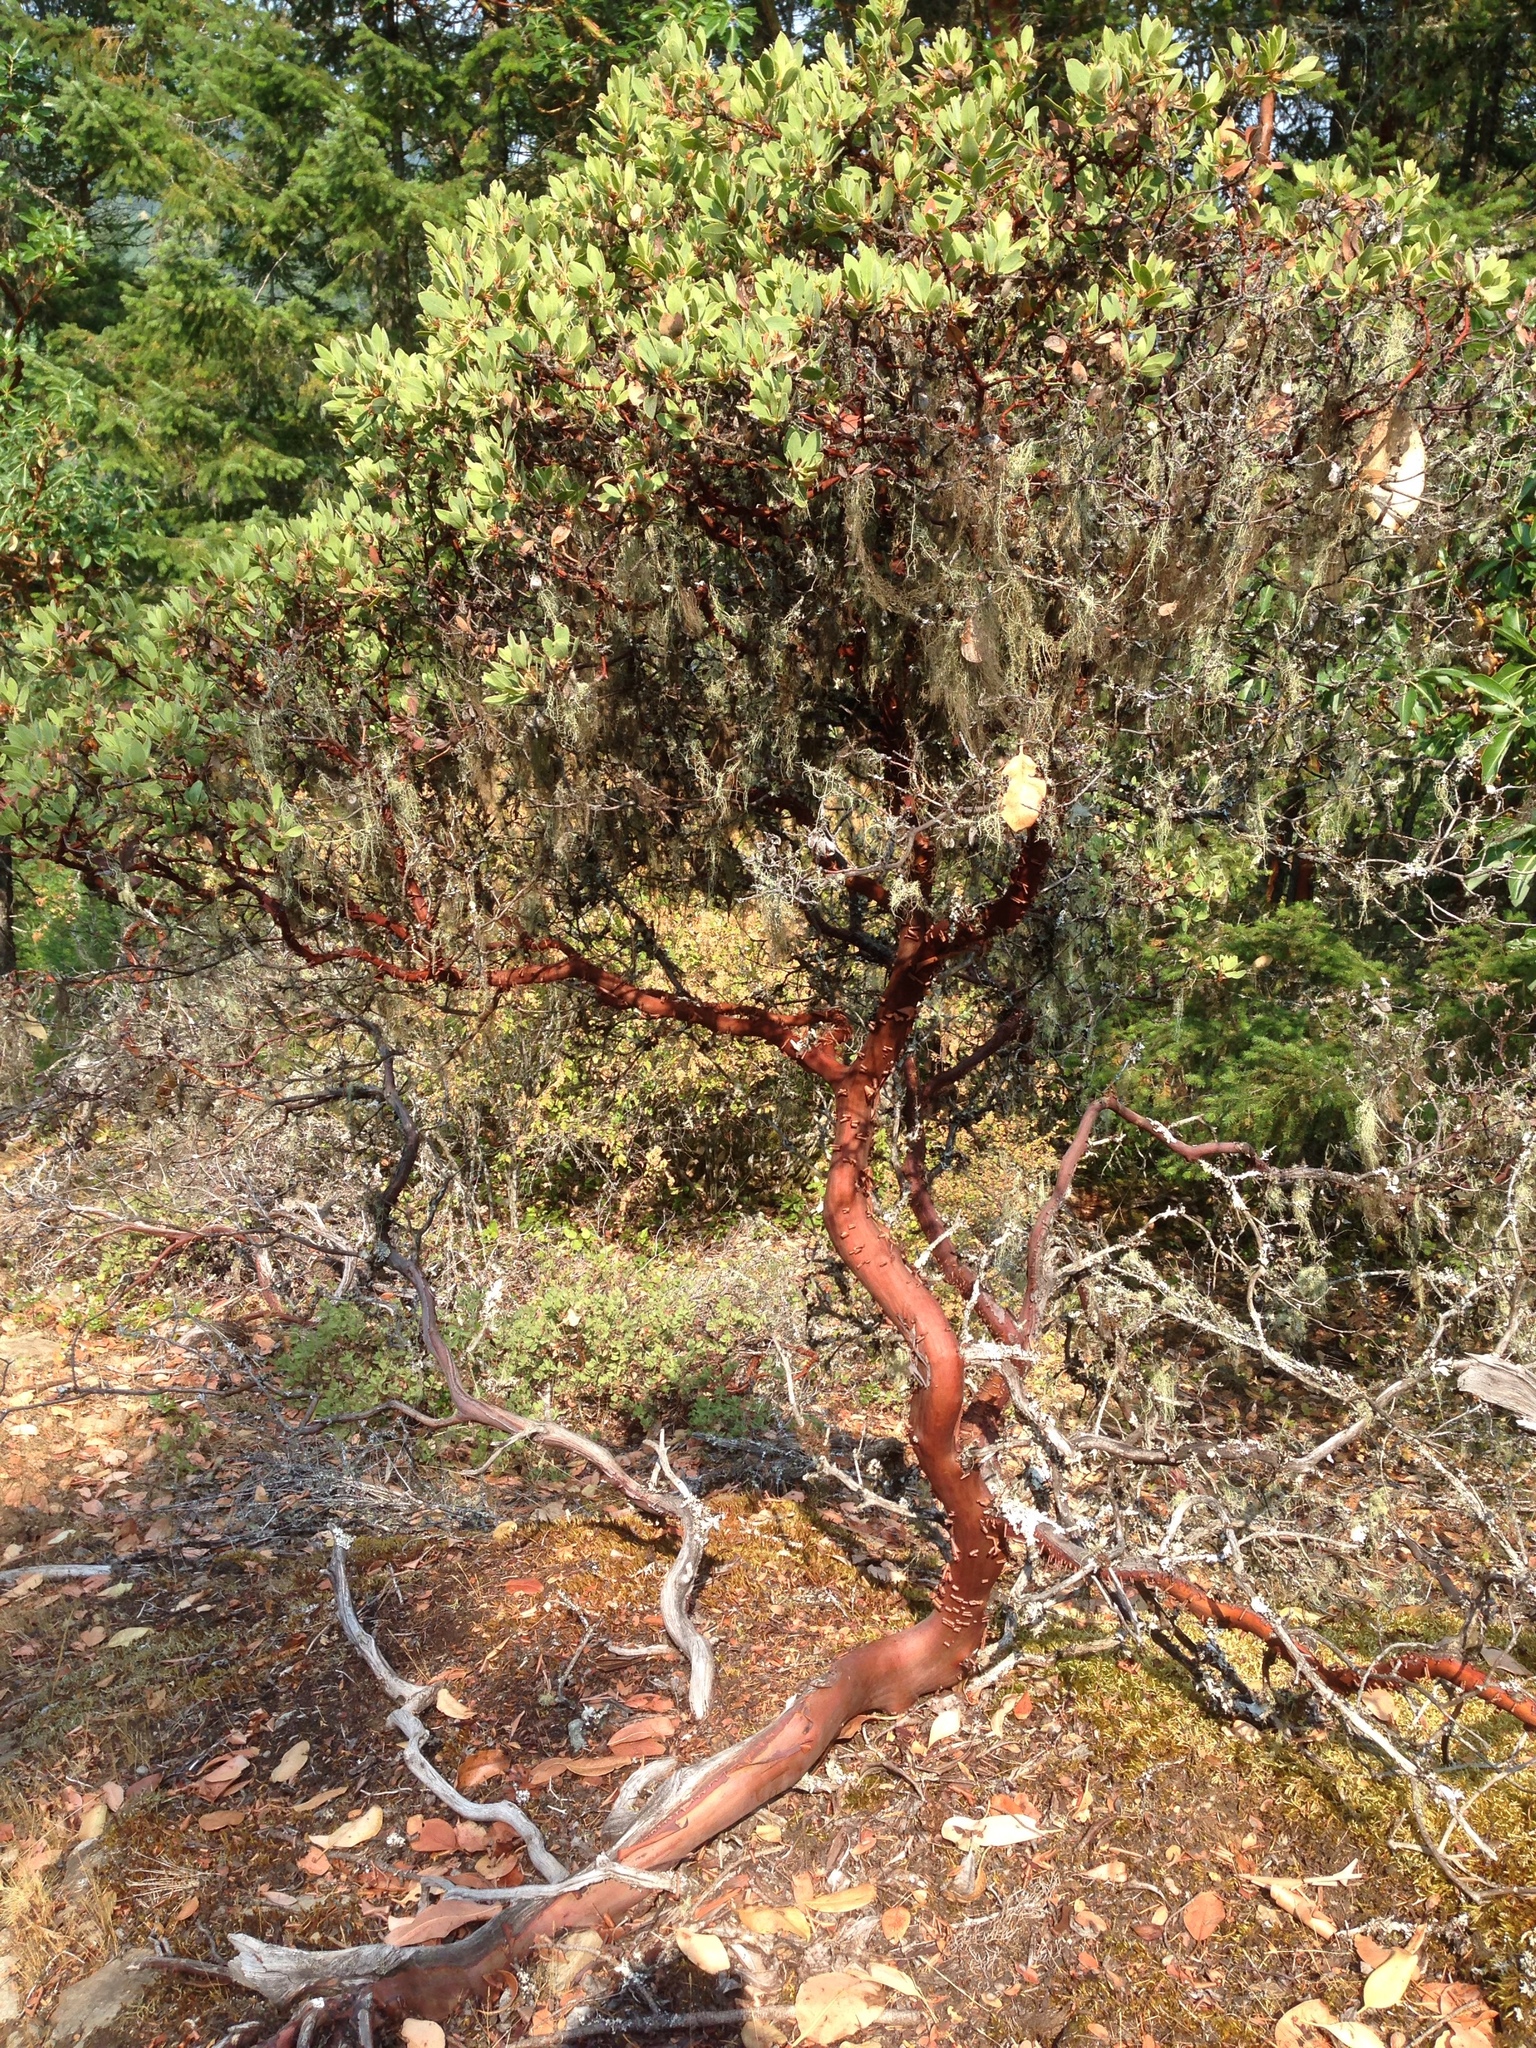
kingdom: Plantae
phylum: Tracheophyta
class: Magnoliopsida
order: Ericales
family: Ericaceae
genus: Arctostaphylos
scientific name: Arctostaphylos columbiana
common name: Bristly bearberry
